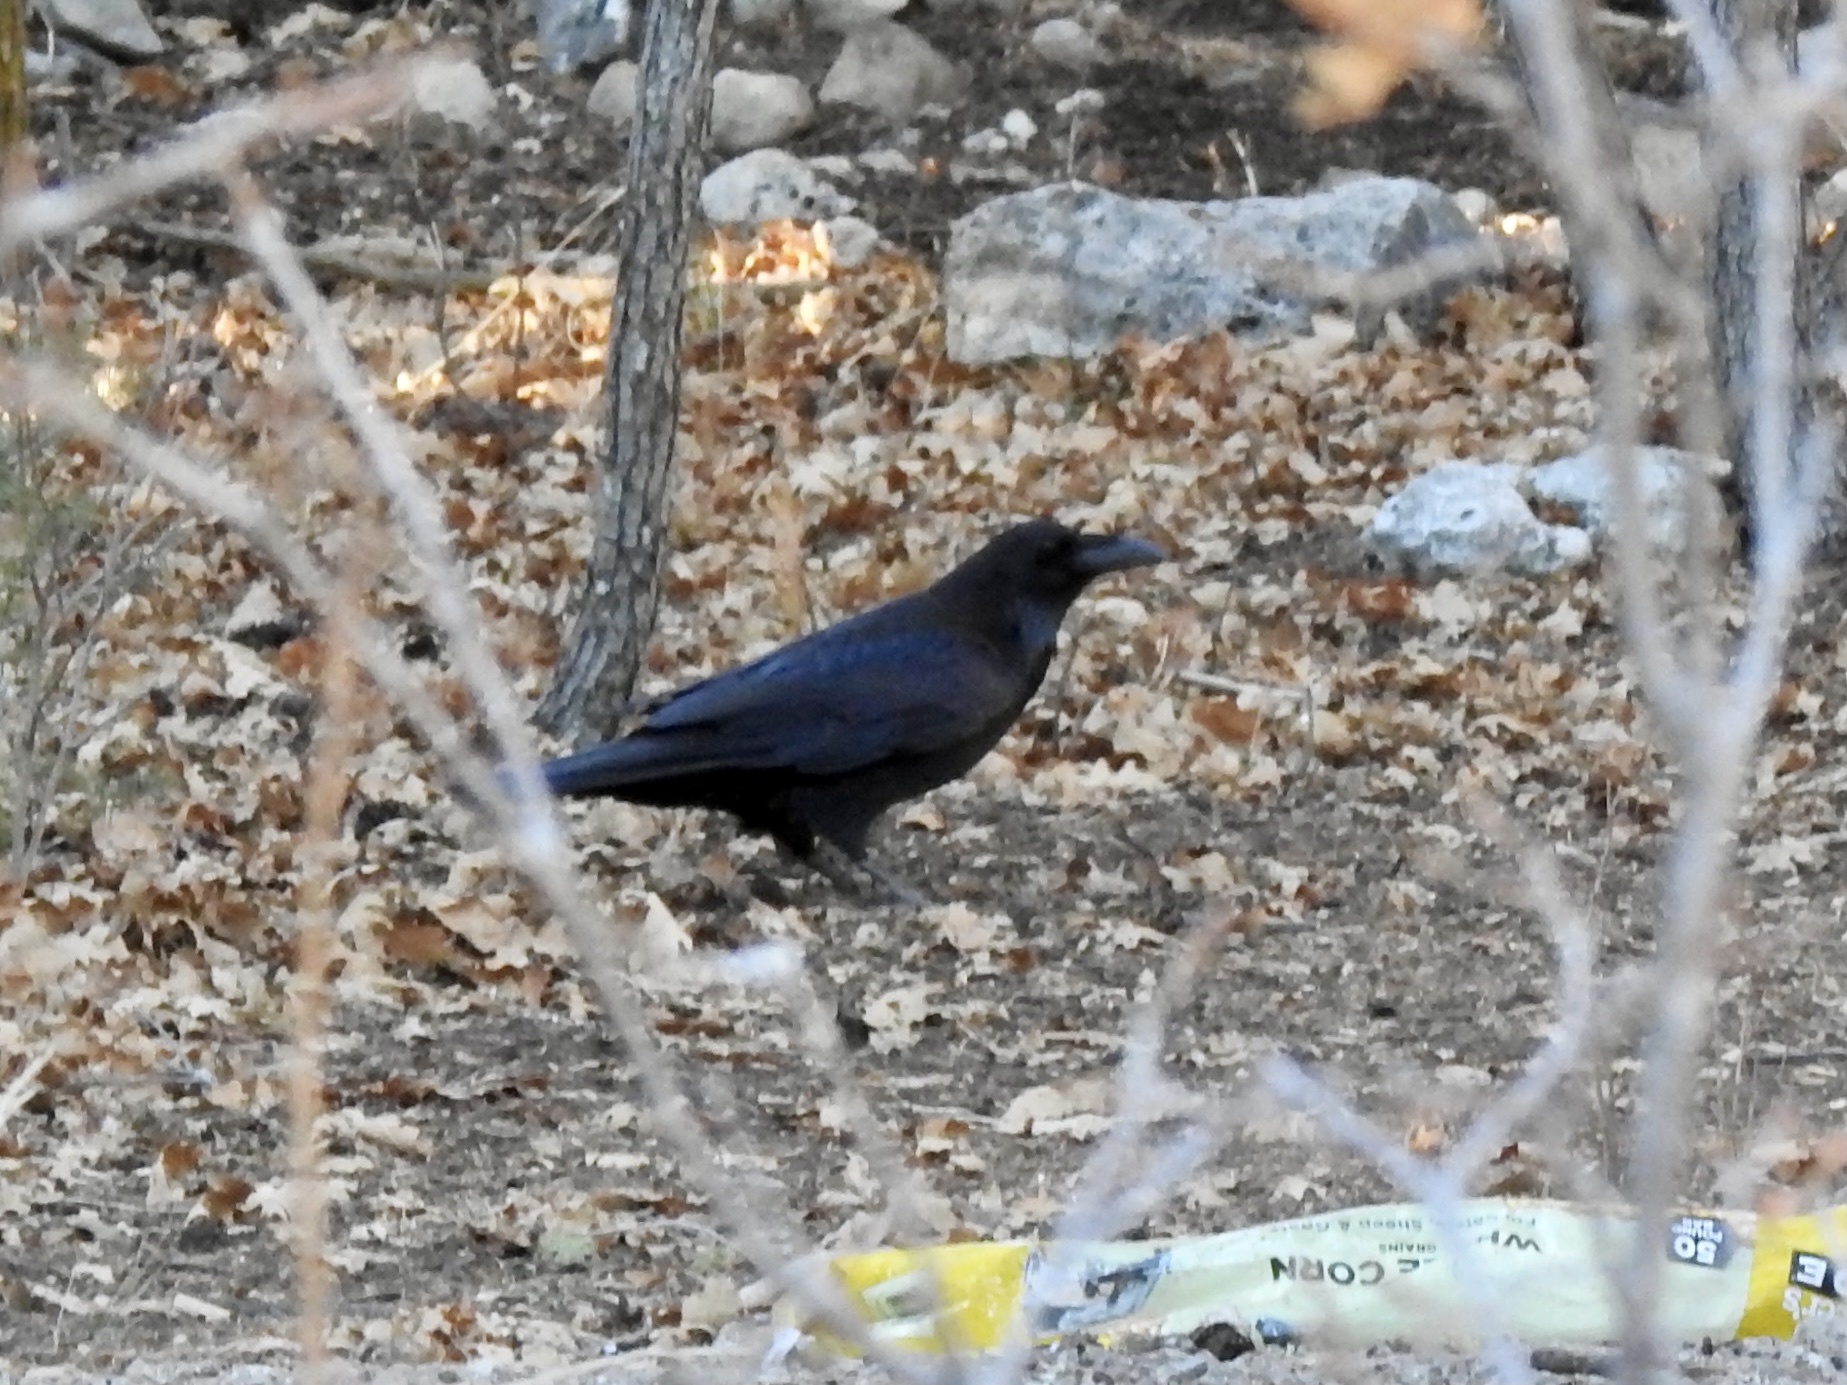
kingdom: Animalia
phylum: Chordata
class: Aves
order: Passeriformes
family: Corvidae
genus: Corvus
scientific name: Corvus corax
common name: Common raven
